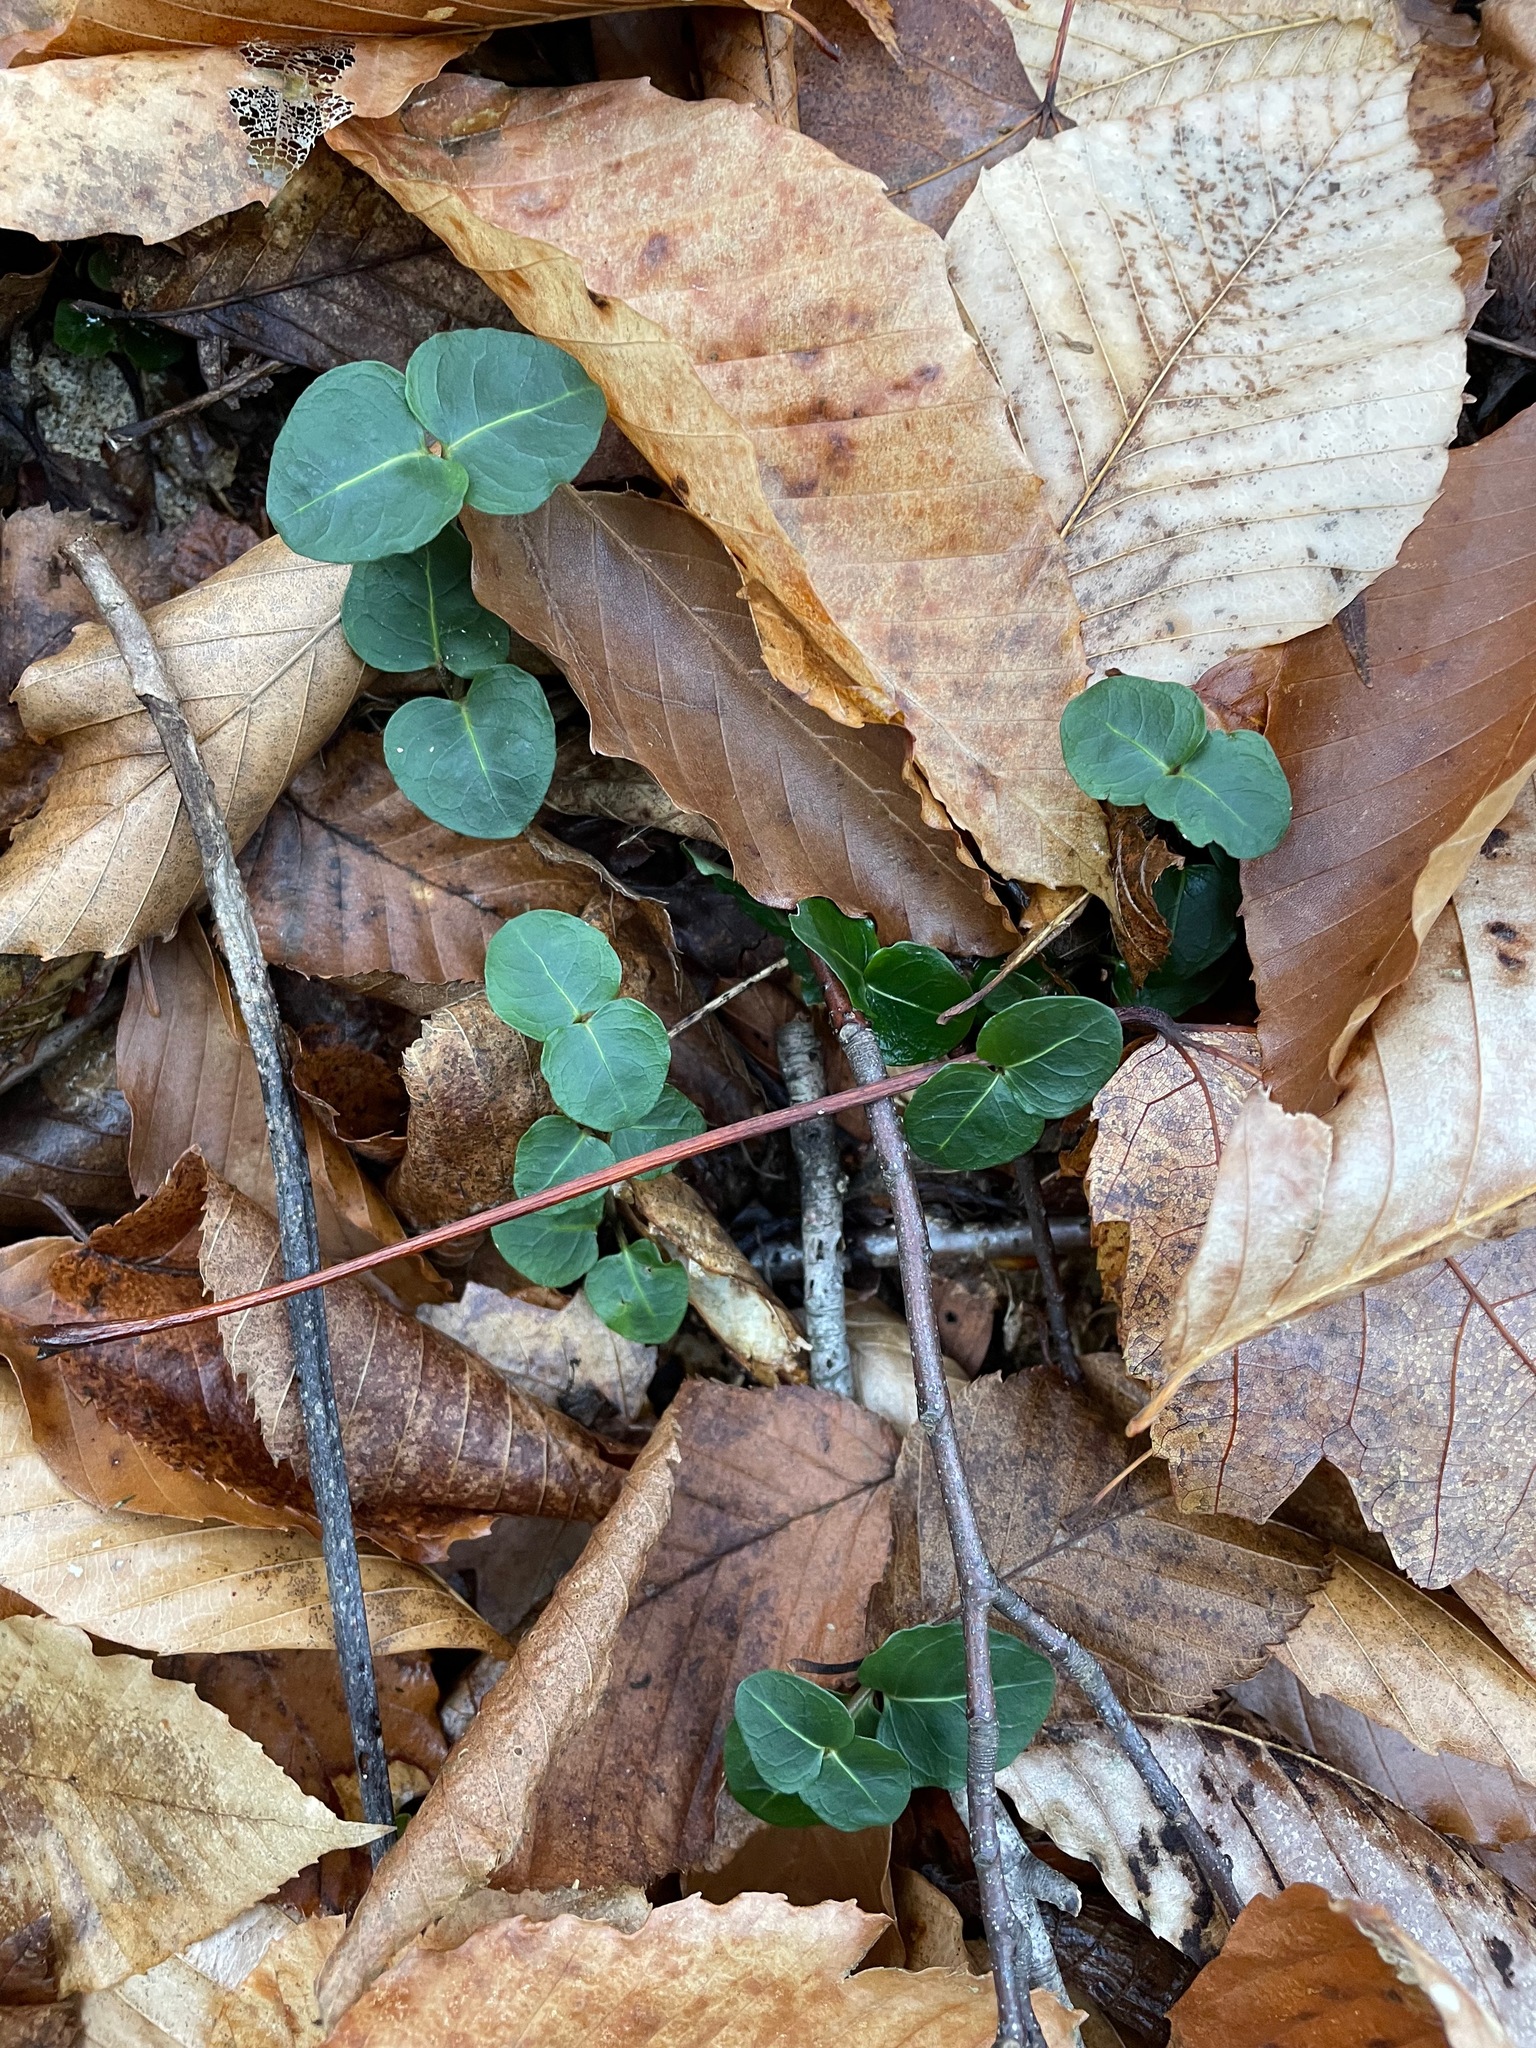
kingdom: Plantae
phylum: Tracheophyta
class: Magnoliopsida
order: Gentianales
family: Rubiaceae
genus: Mitchella
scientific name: Mitchella repens
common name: Partridge-berry
